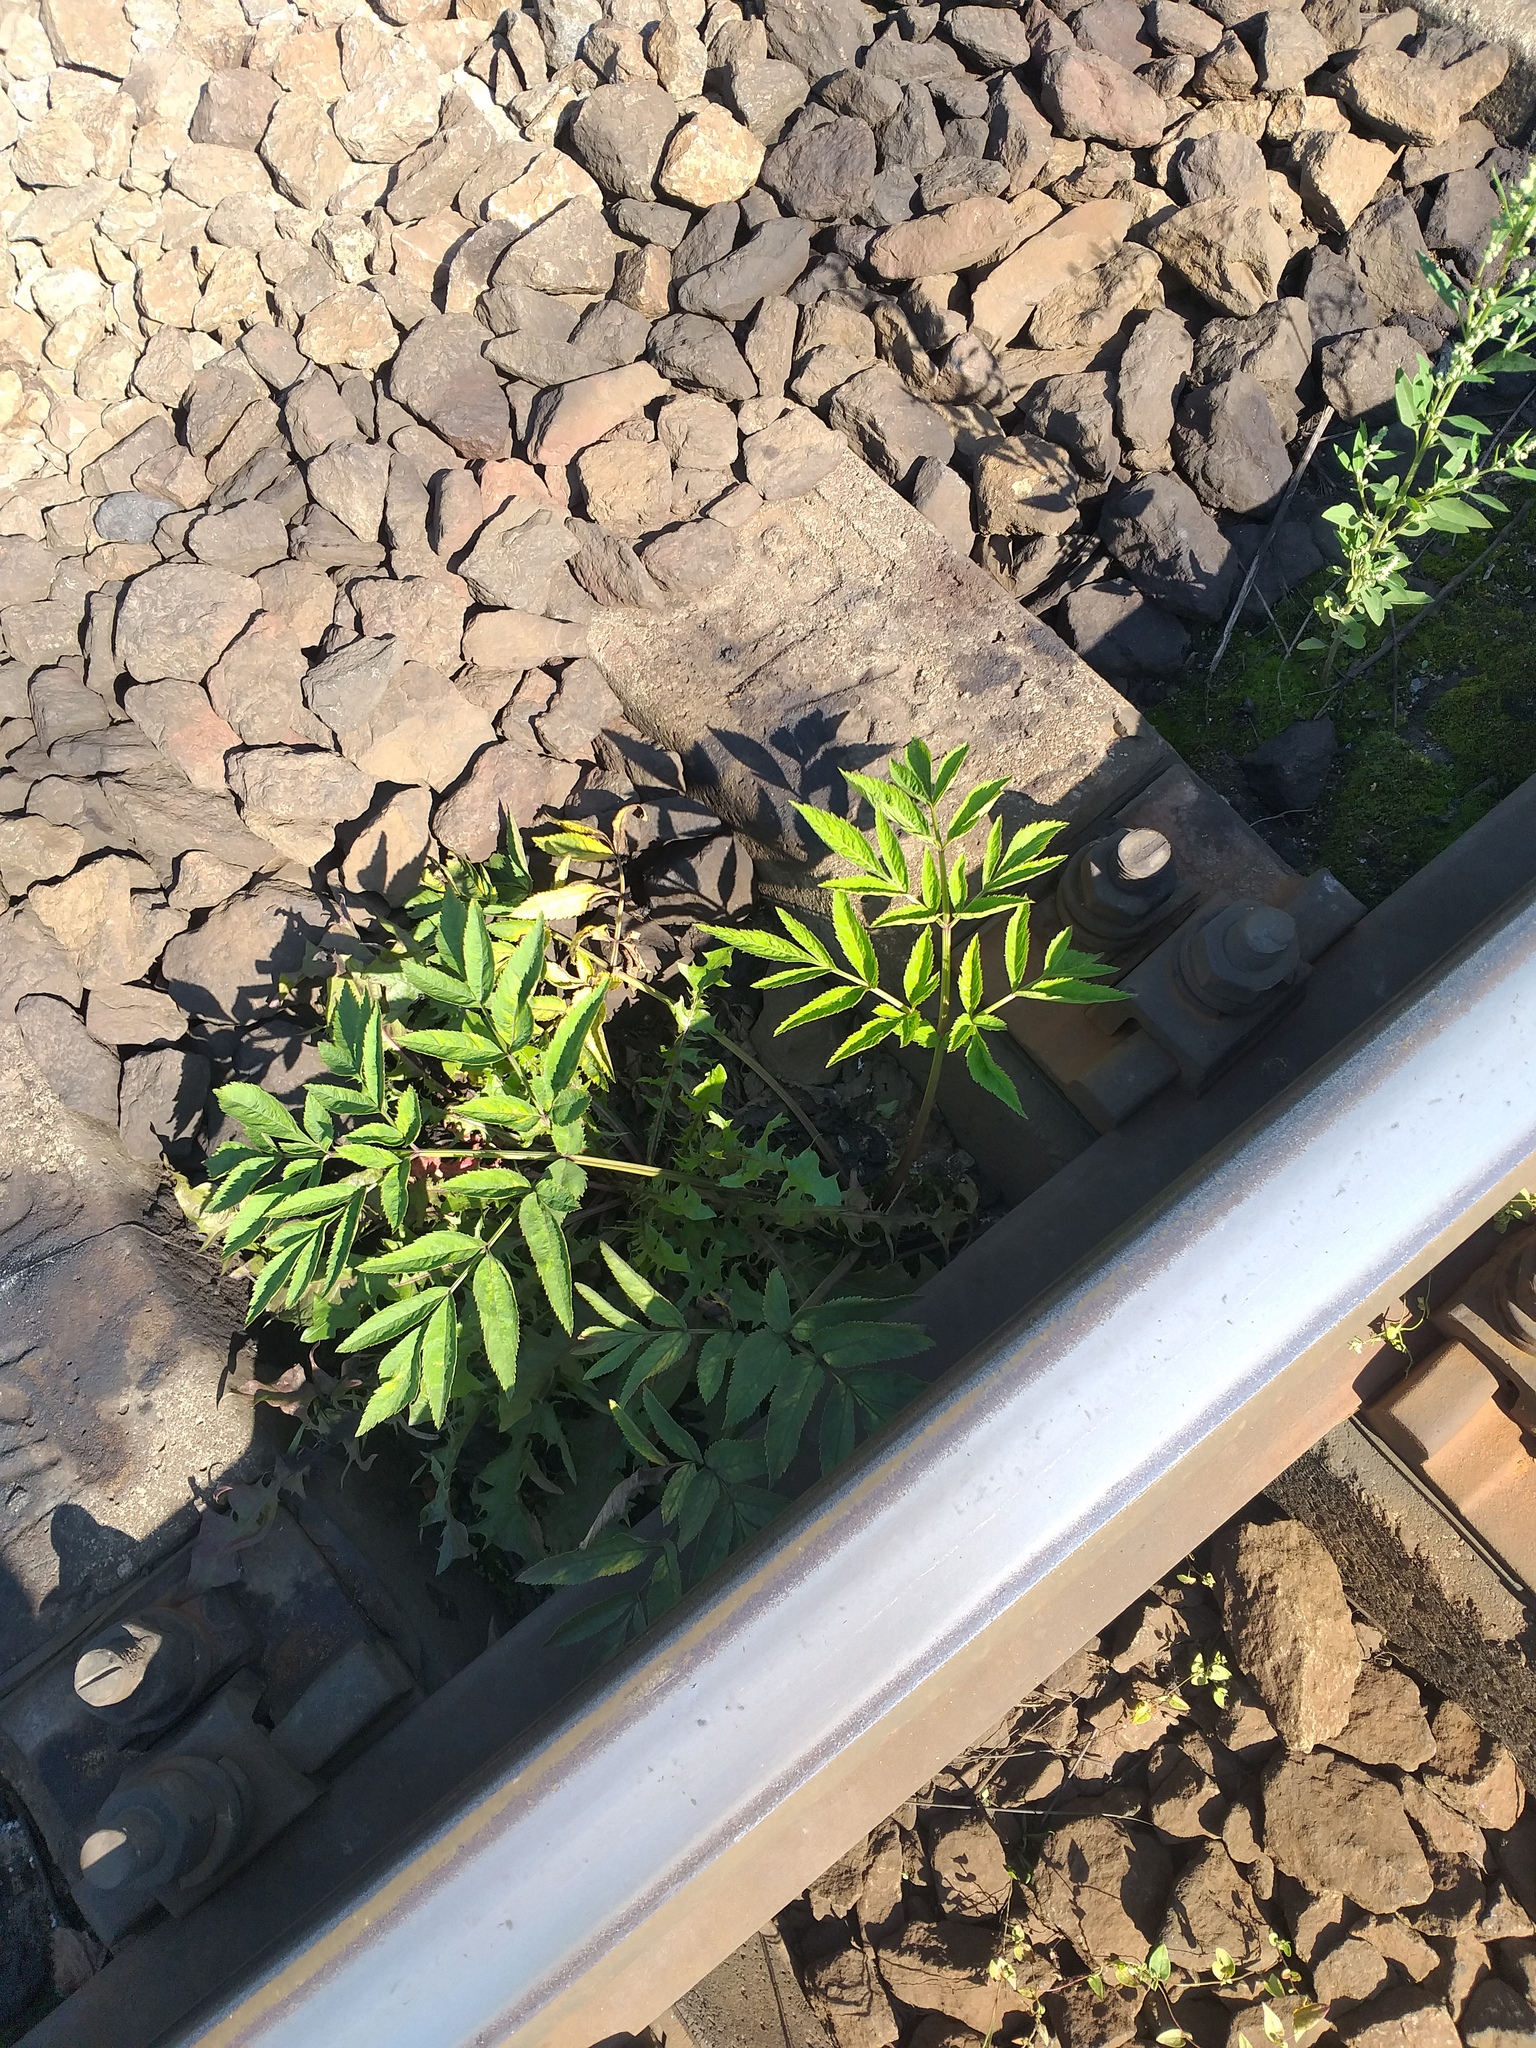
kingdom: Plantae
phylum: Tracheophyta
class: Magnoliopsida
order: Apiales
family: Apiaceae
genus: Angelica
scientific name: Angelica sylvestris
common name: Wild angelica
